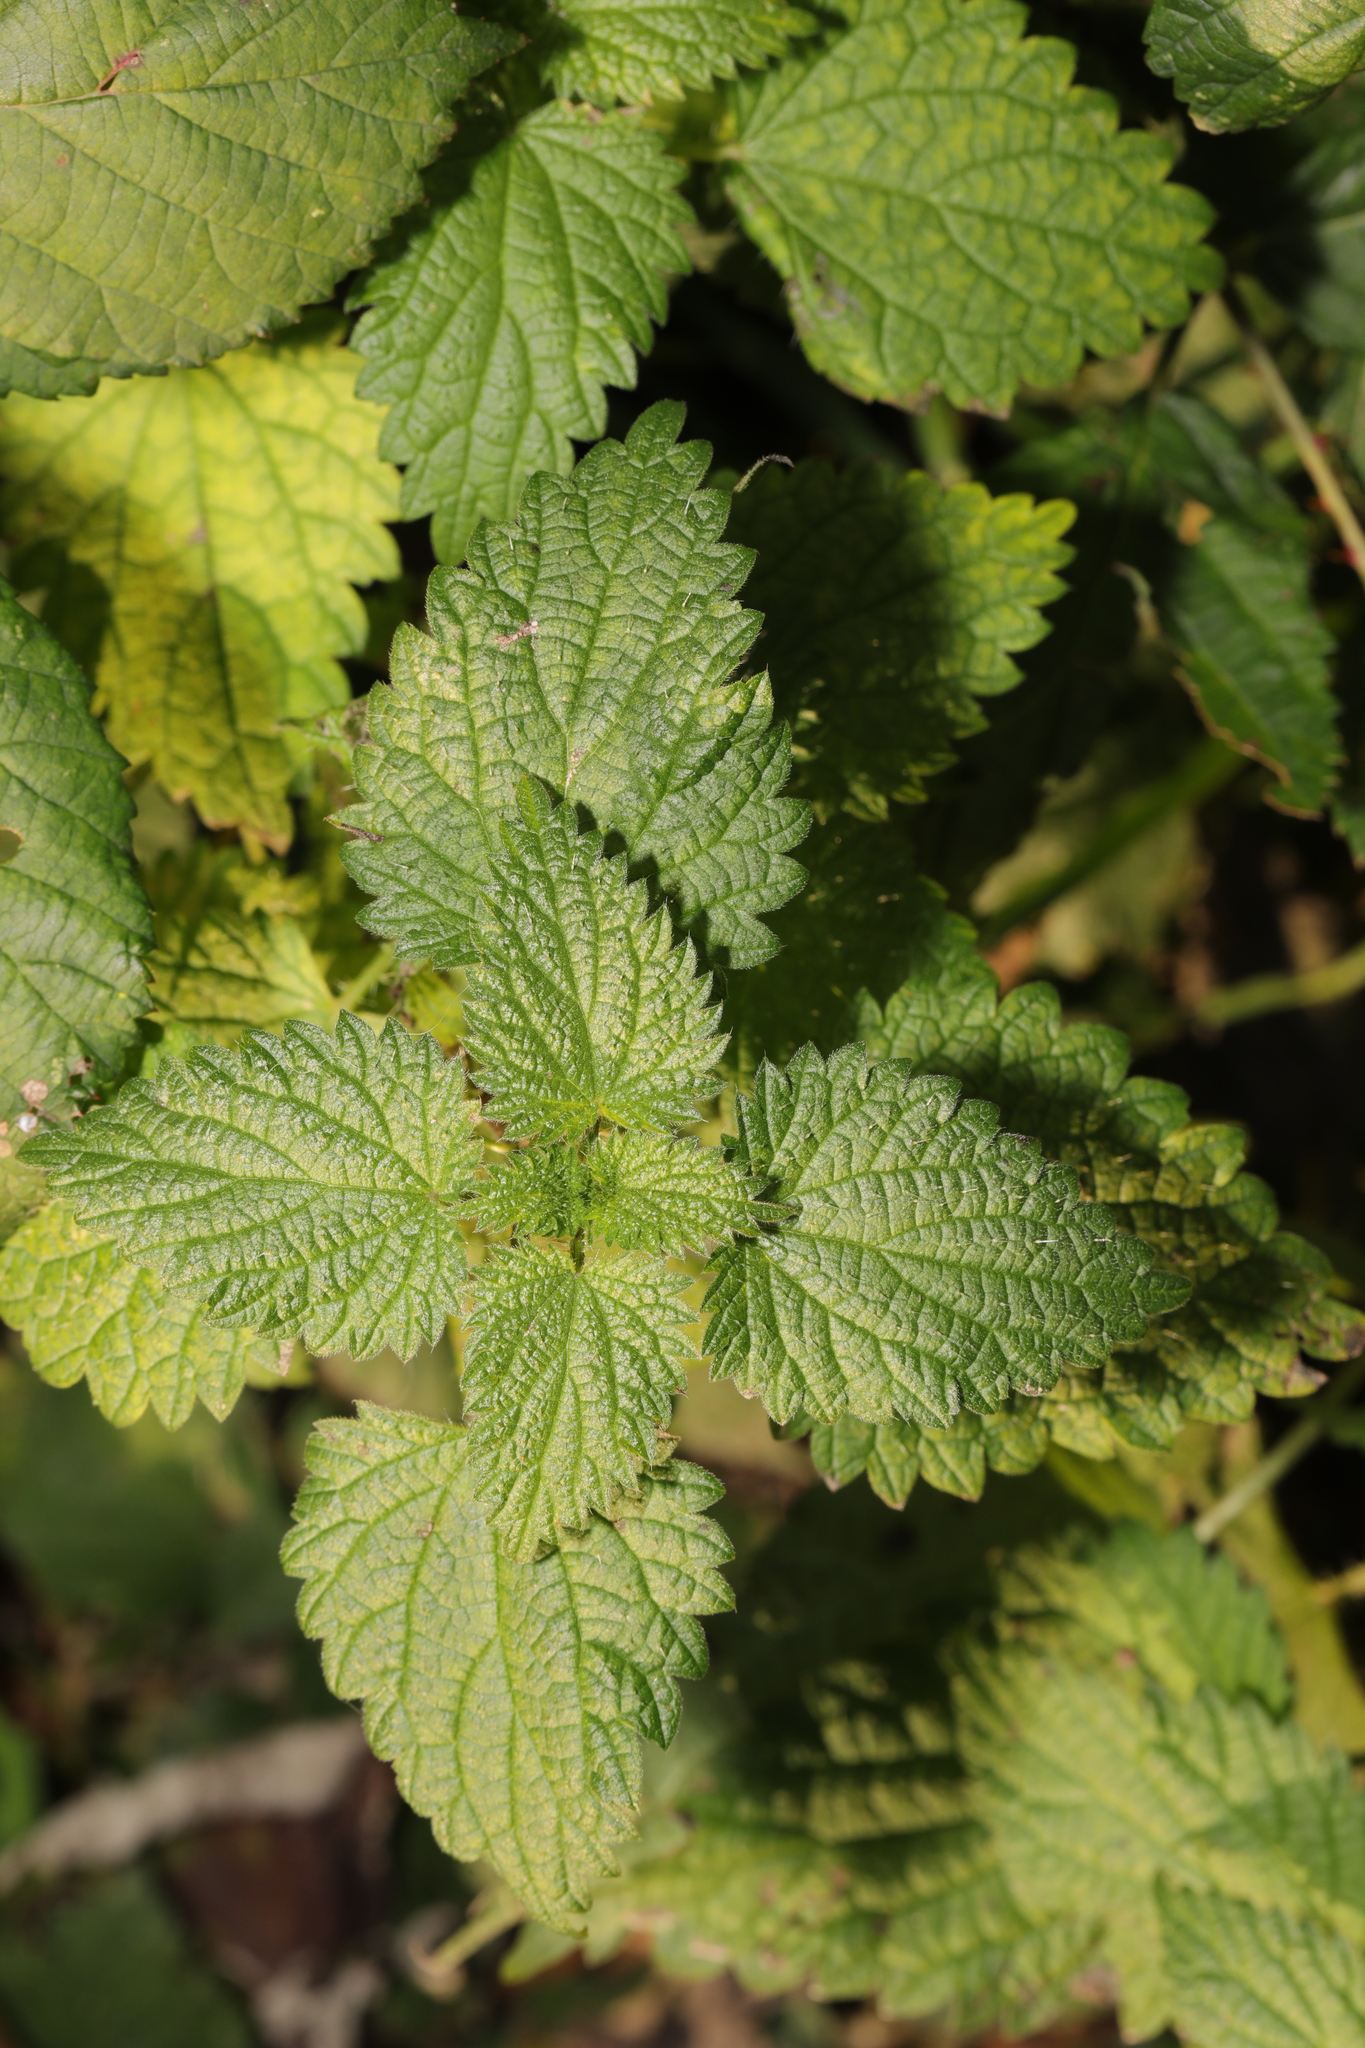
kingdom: Plantae
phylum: Tracheophyta
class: Magnoliopsida
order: Rosales
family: Urticaceae
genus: Urtica
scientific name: Urtica dioica
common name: Common nettle
